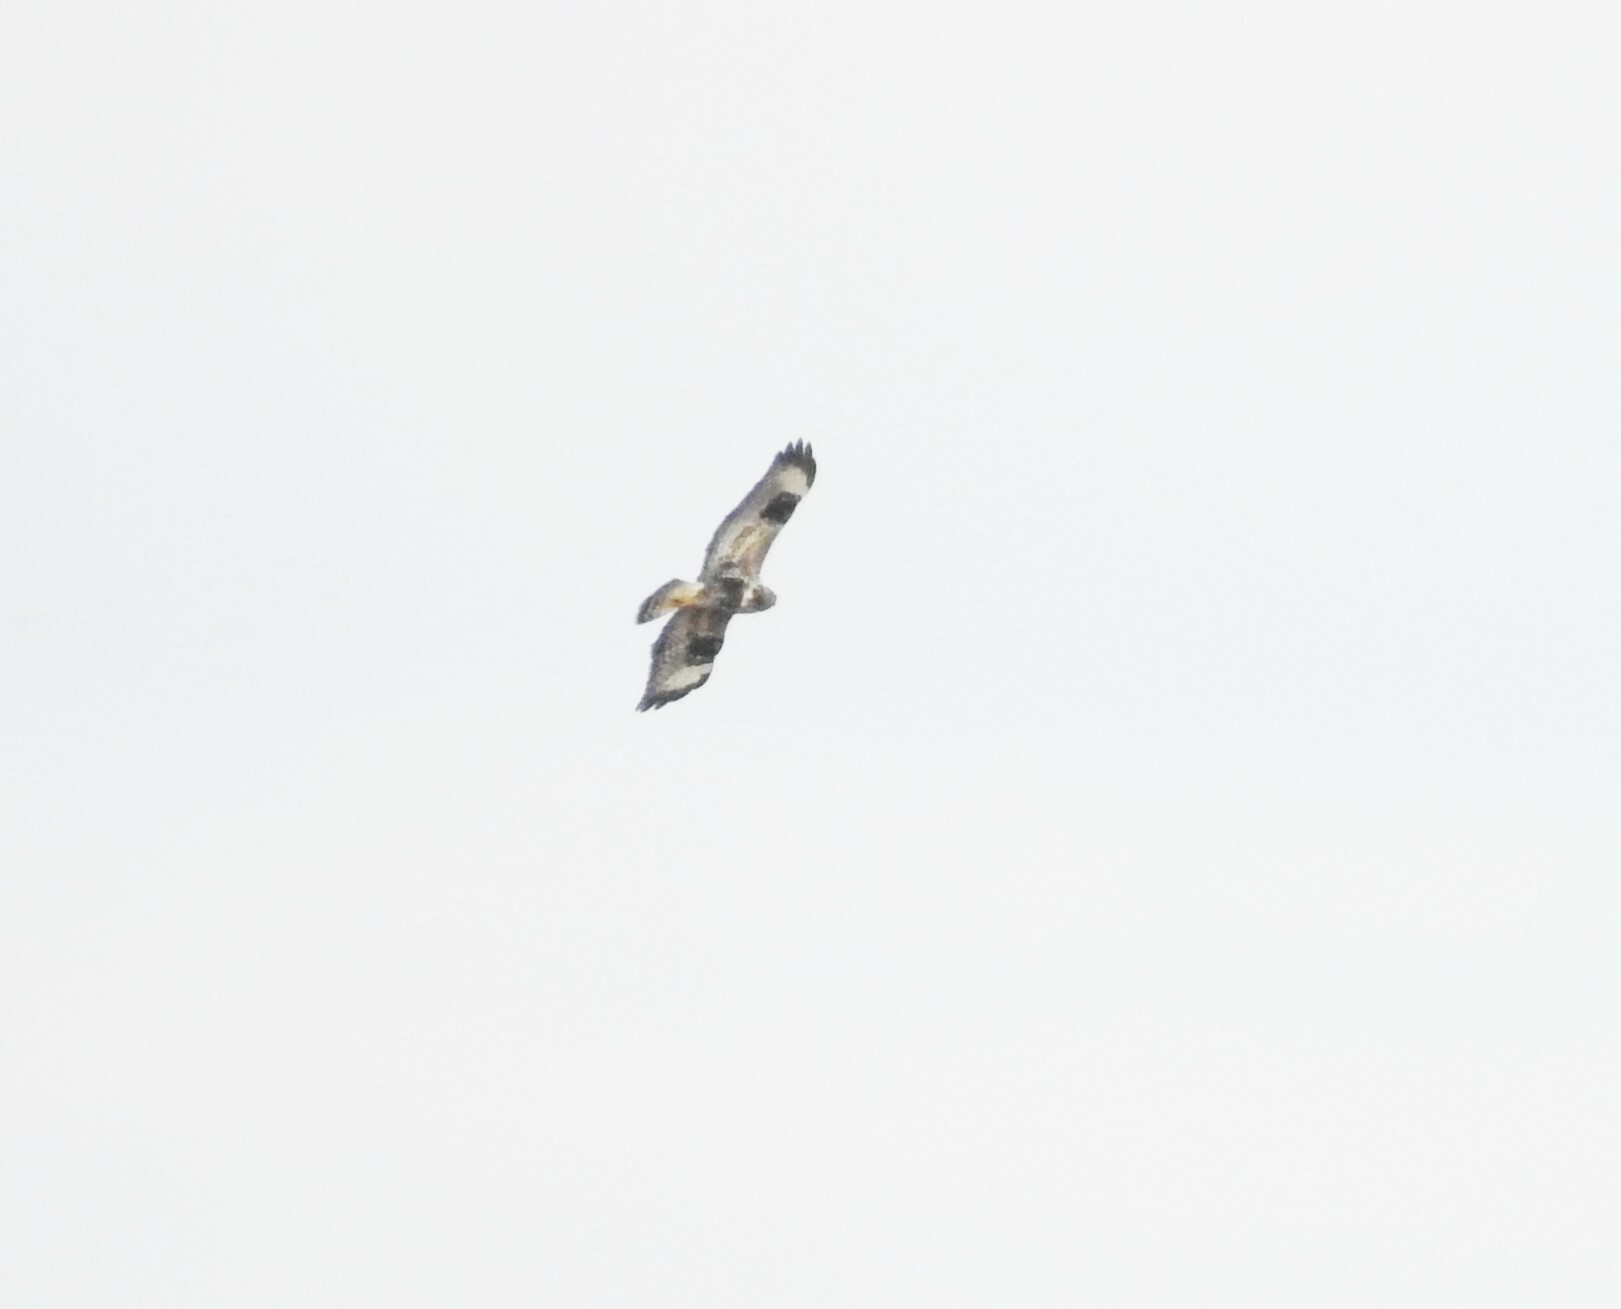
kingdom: Animalia
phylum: Chordata
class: Aves
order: Accipitriformes
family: Accipitridae
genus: Buteo
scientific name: Buteo lagopus
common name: Rough-legged buzzard
